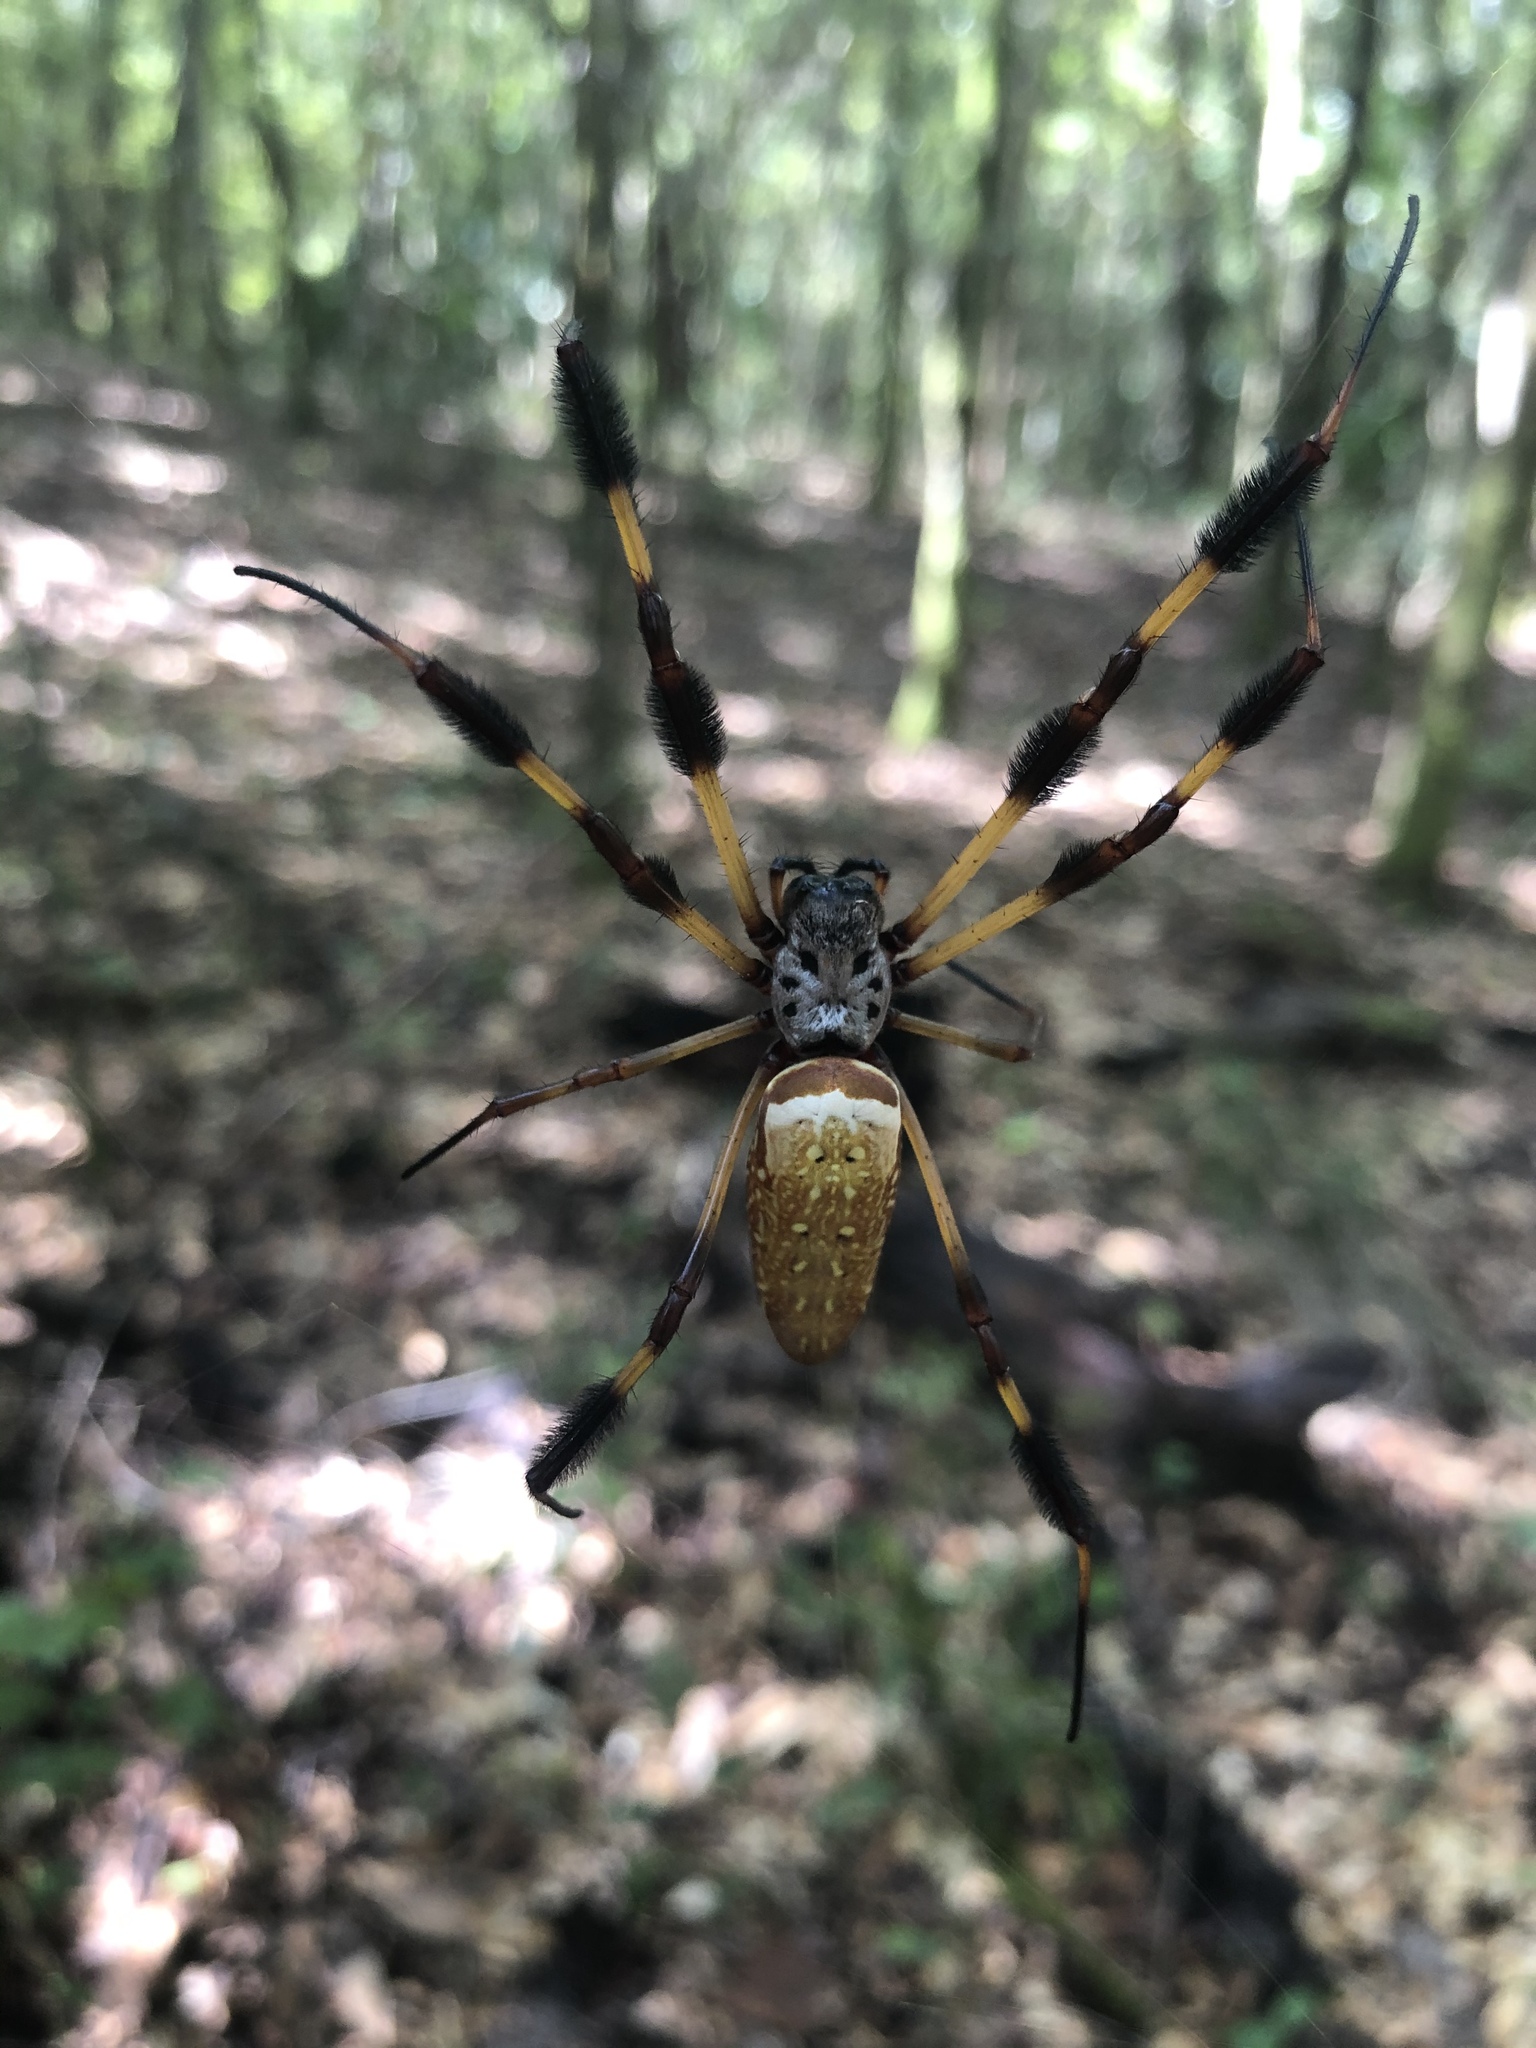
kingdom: Animalia
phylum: Arthropoda
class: Arachnida
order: Araneae
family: Araneidae
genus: Trichonephila
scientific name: Trichonephila clavipes
